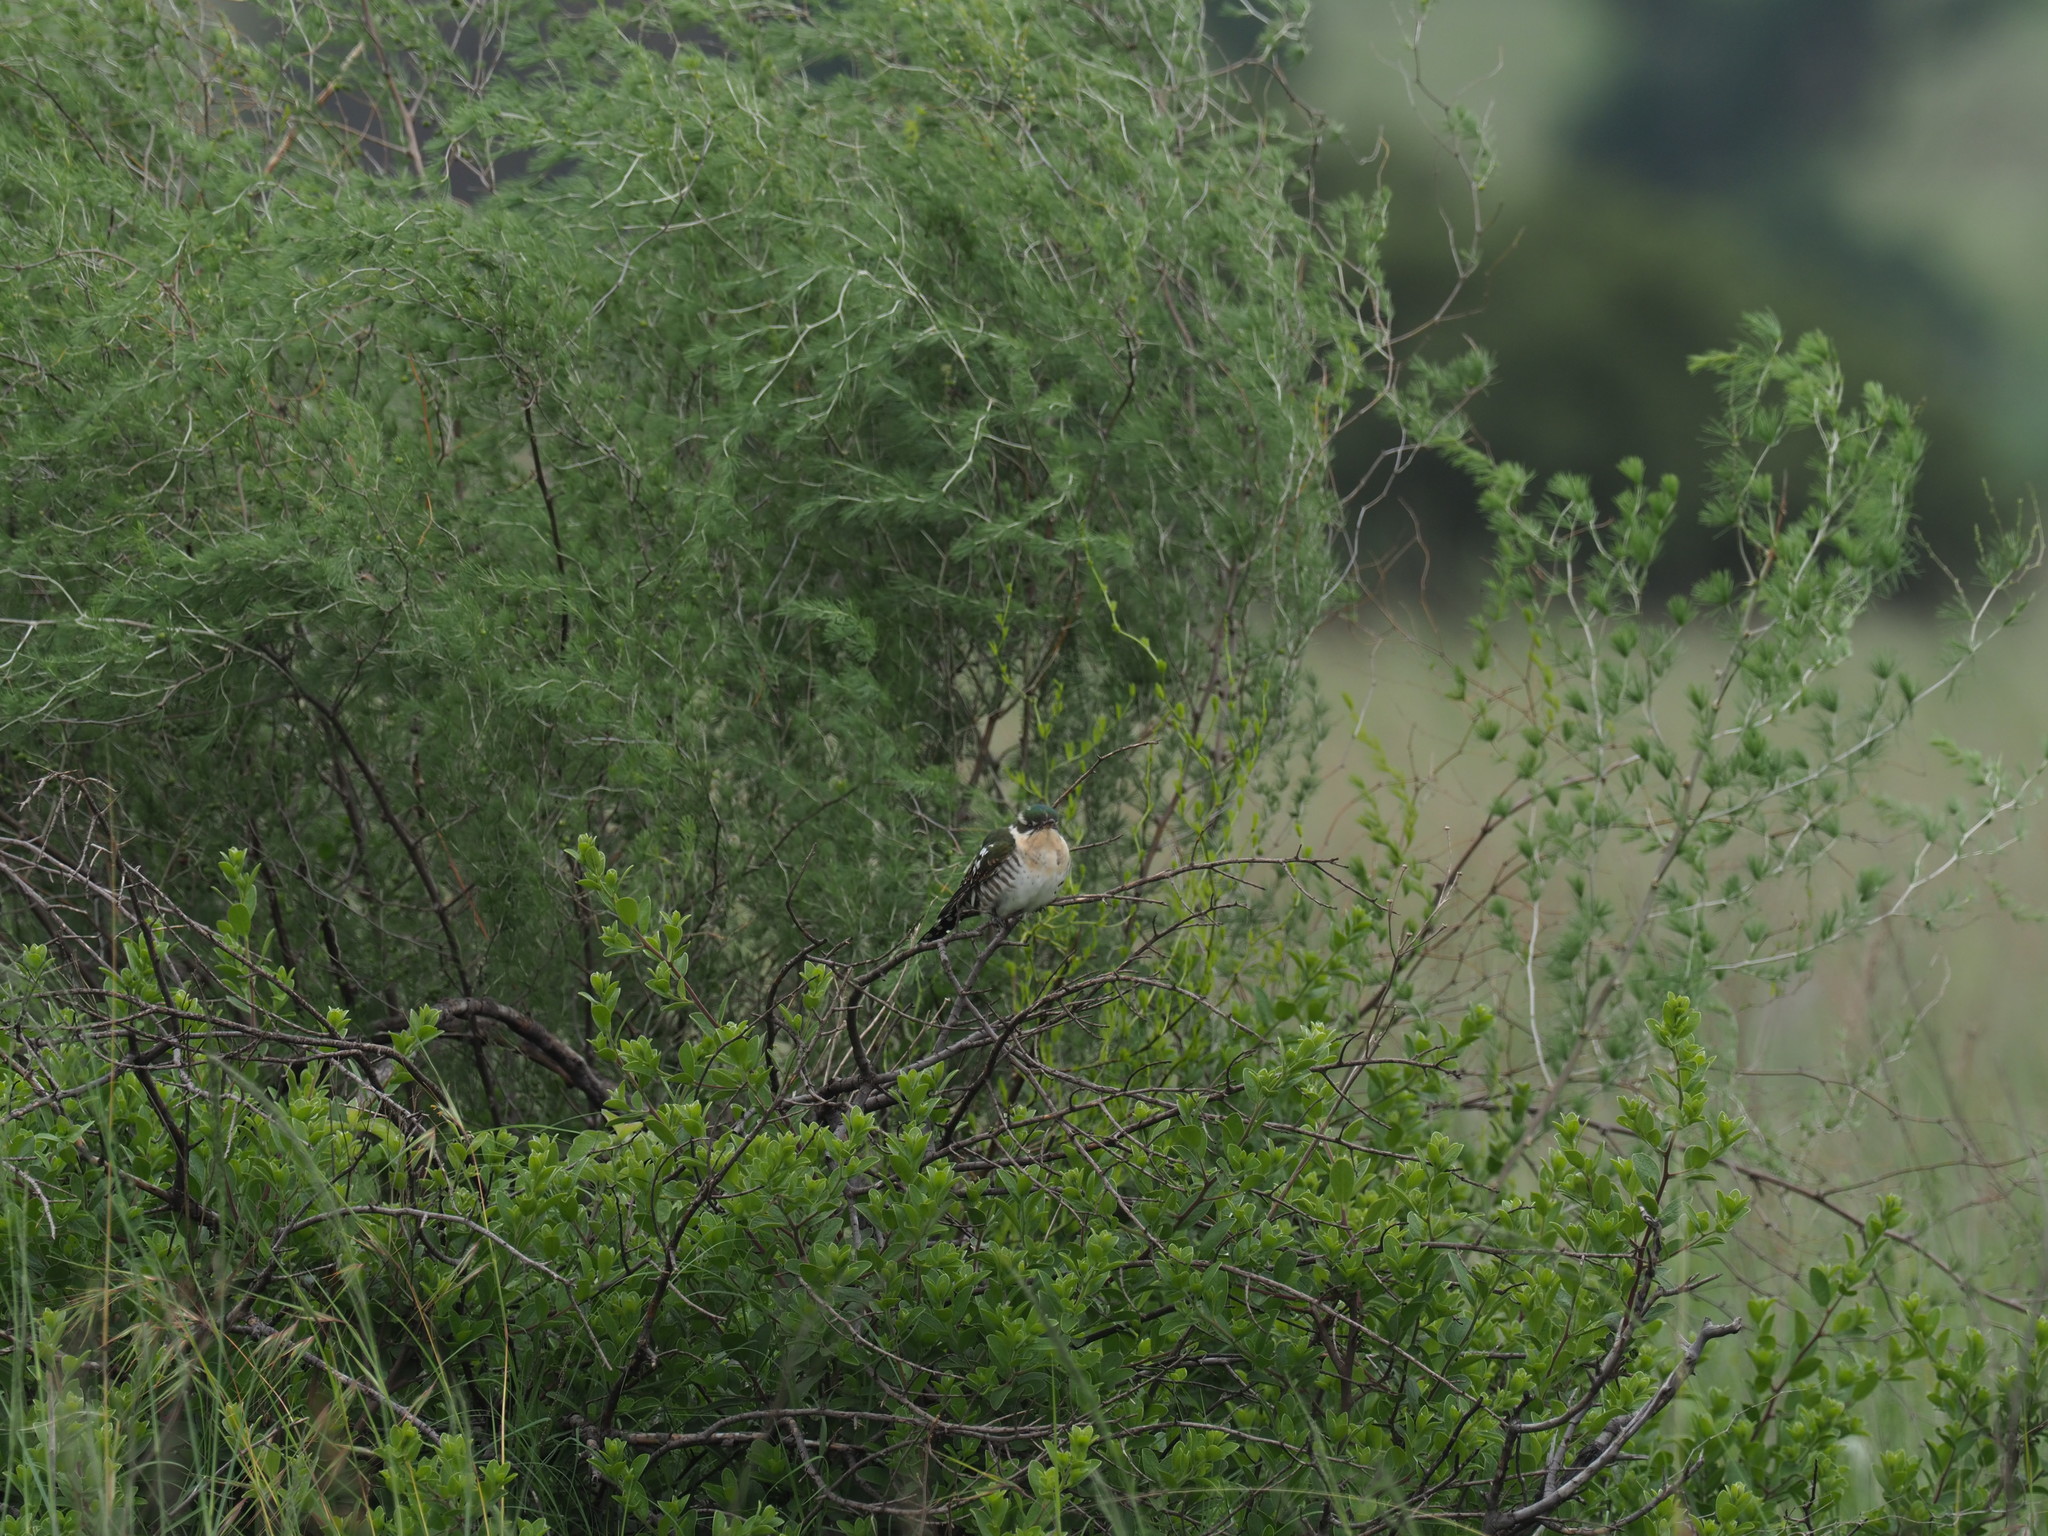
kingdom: Animalia
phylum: Chordata
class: Aves
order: Cuculiformes
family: Cuculidae
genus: Chrysococcyx
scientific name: Chrysococcyx caprius
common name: Diederik cuckoo
